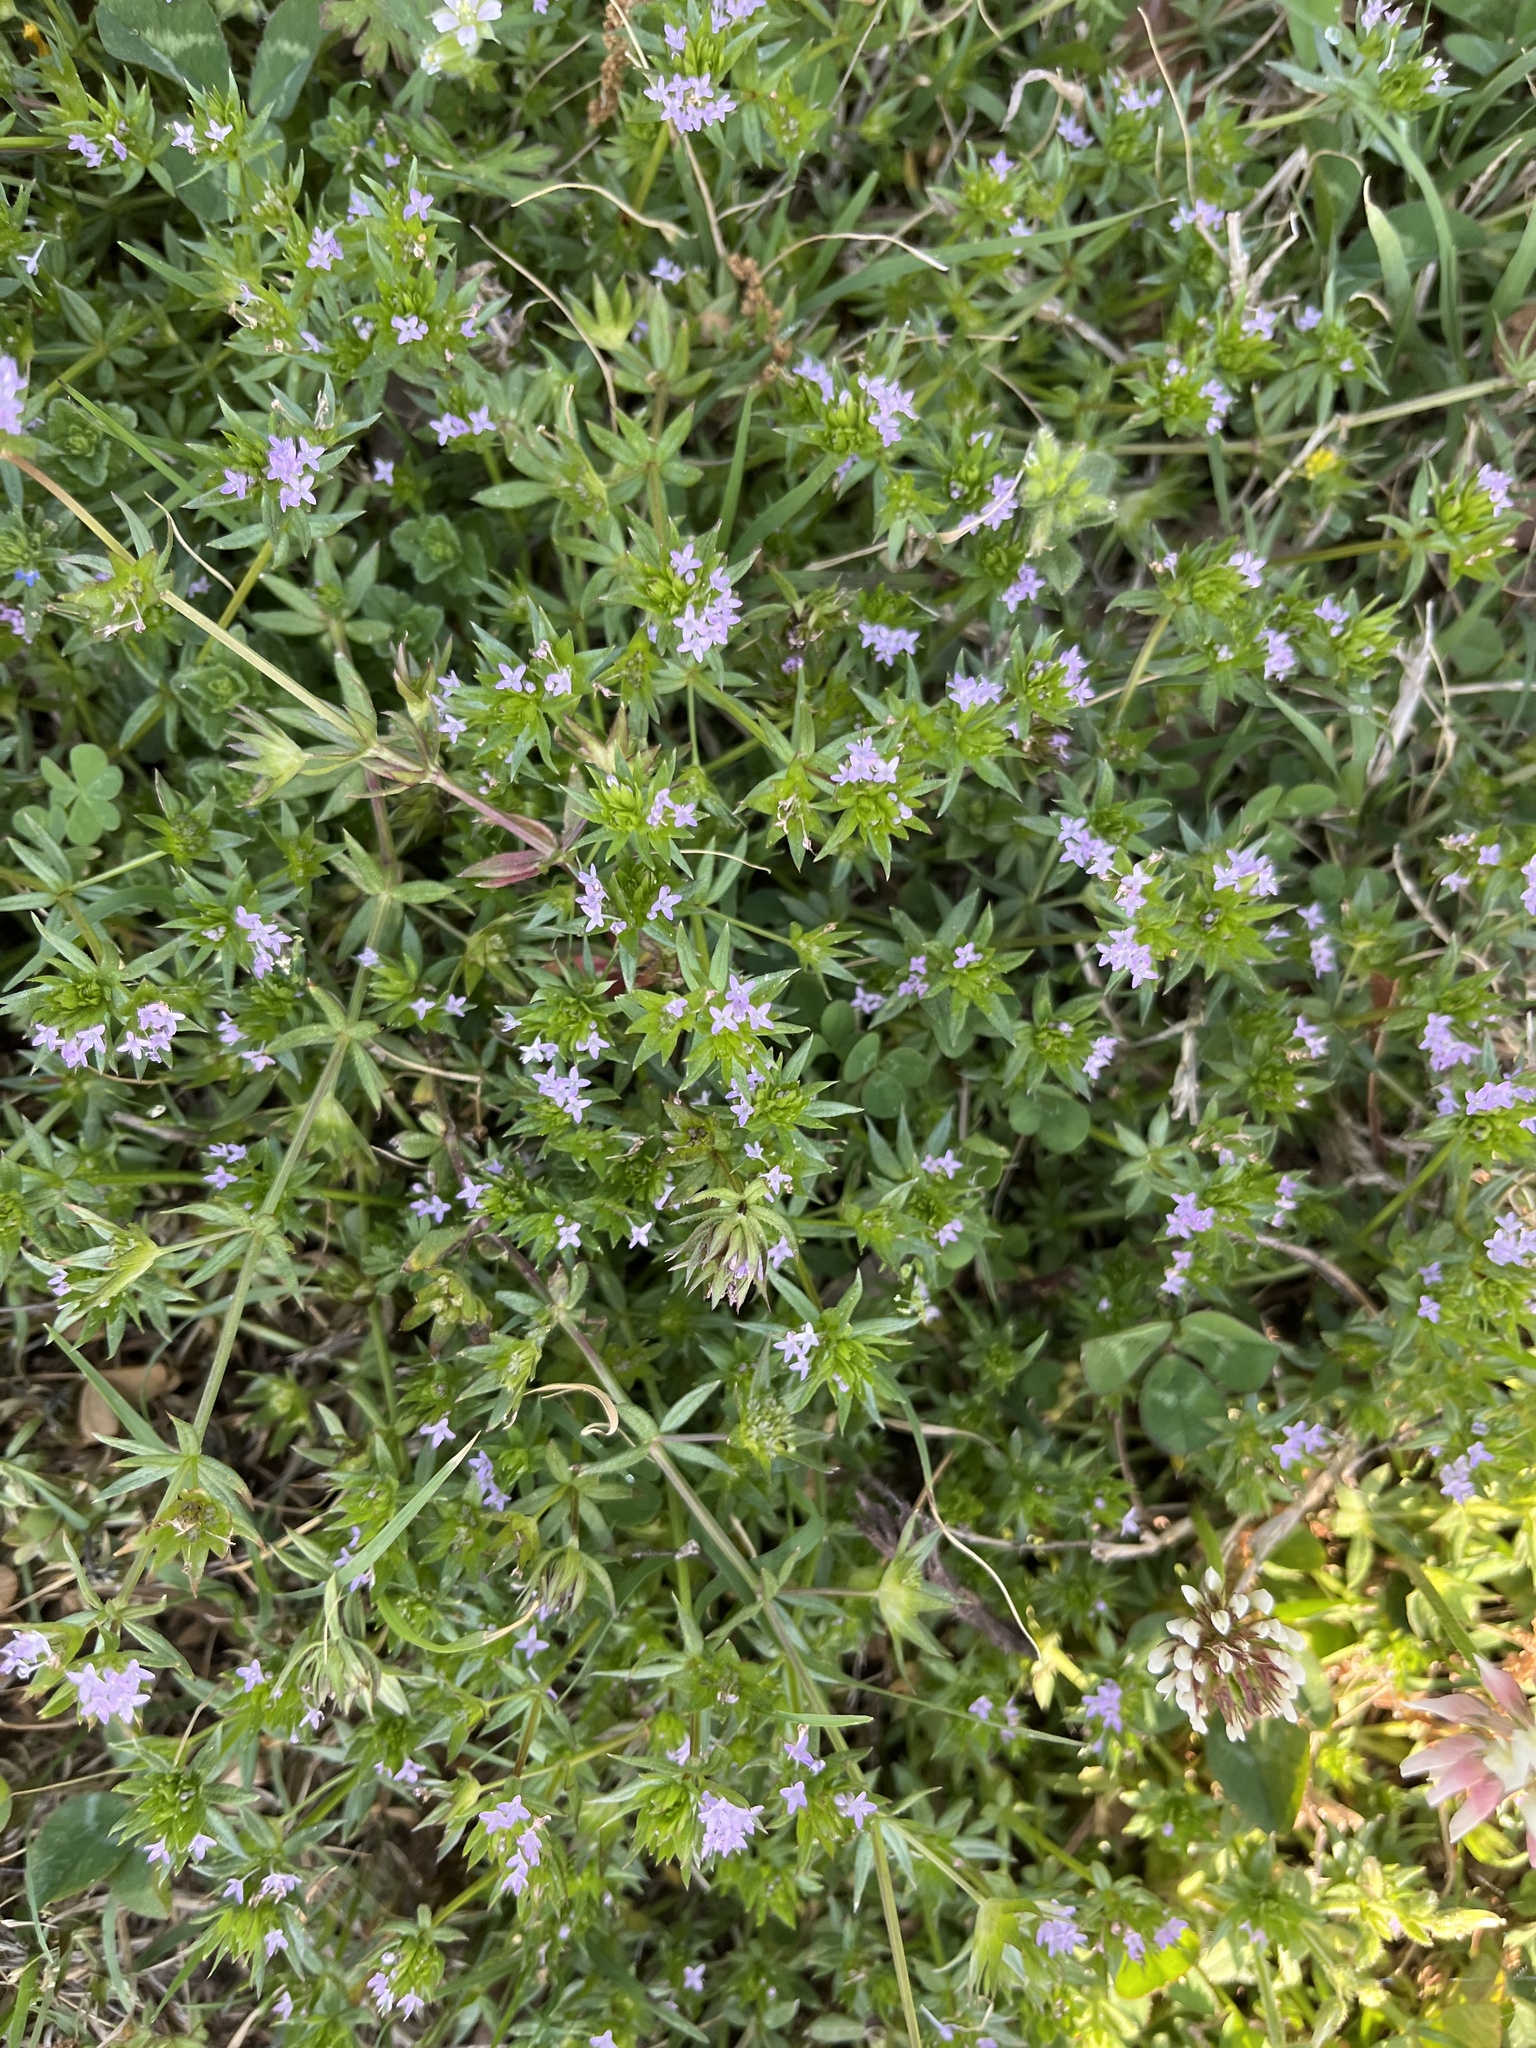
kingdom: Plantae
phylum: Tracheophyta
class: Magnoliopsida
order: Gentianales
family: Rubiaceae
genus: Sherardia
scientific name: Sherardia arvensis
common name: Field madder
